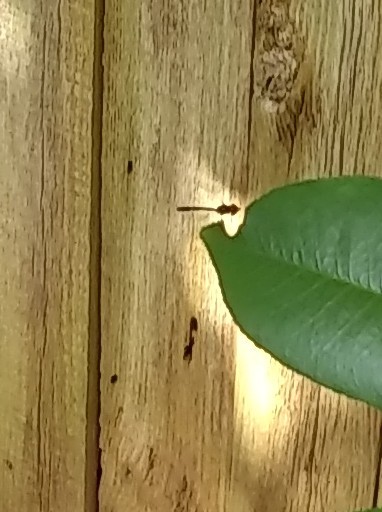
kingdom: Animalia
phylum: Arthropoda
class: Insecta
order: Diptera
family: Syrphidae
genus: Hypocritanus
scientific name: Hypocritanus fascipennis
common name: Eastern band-winged hover fly
